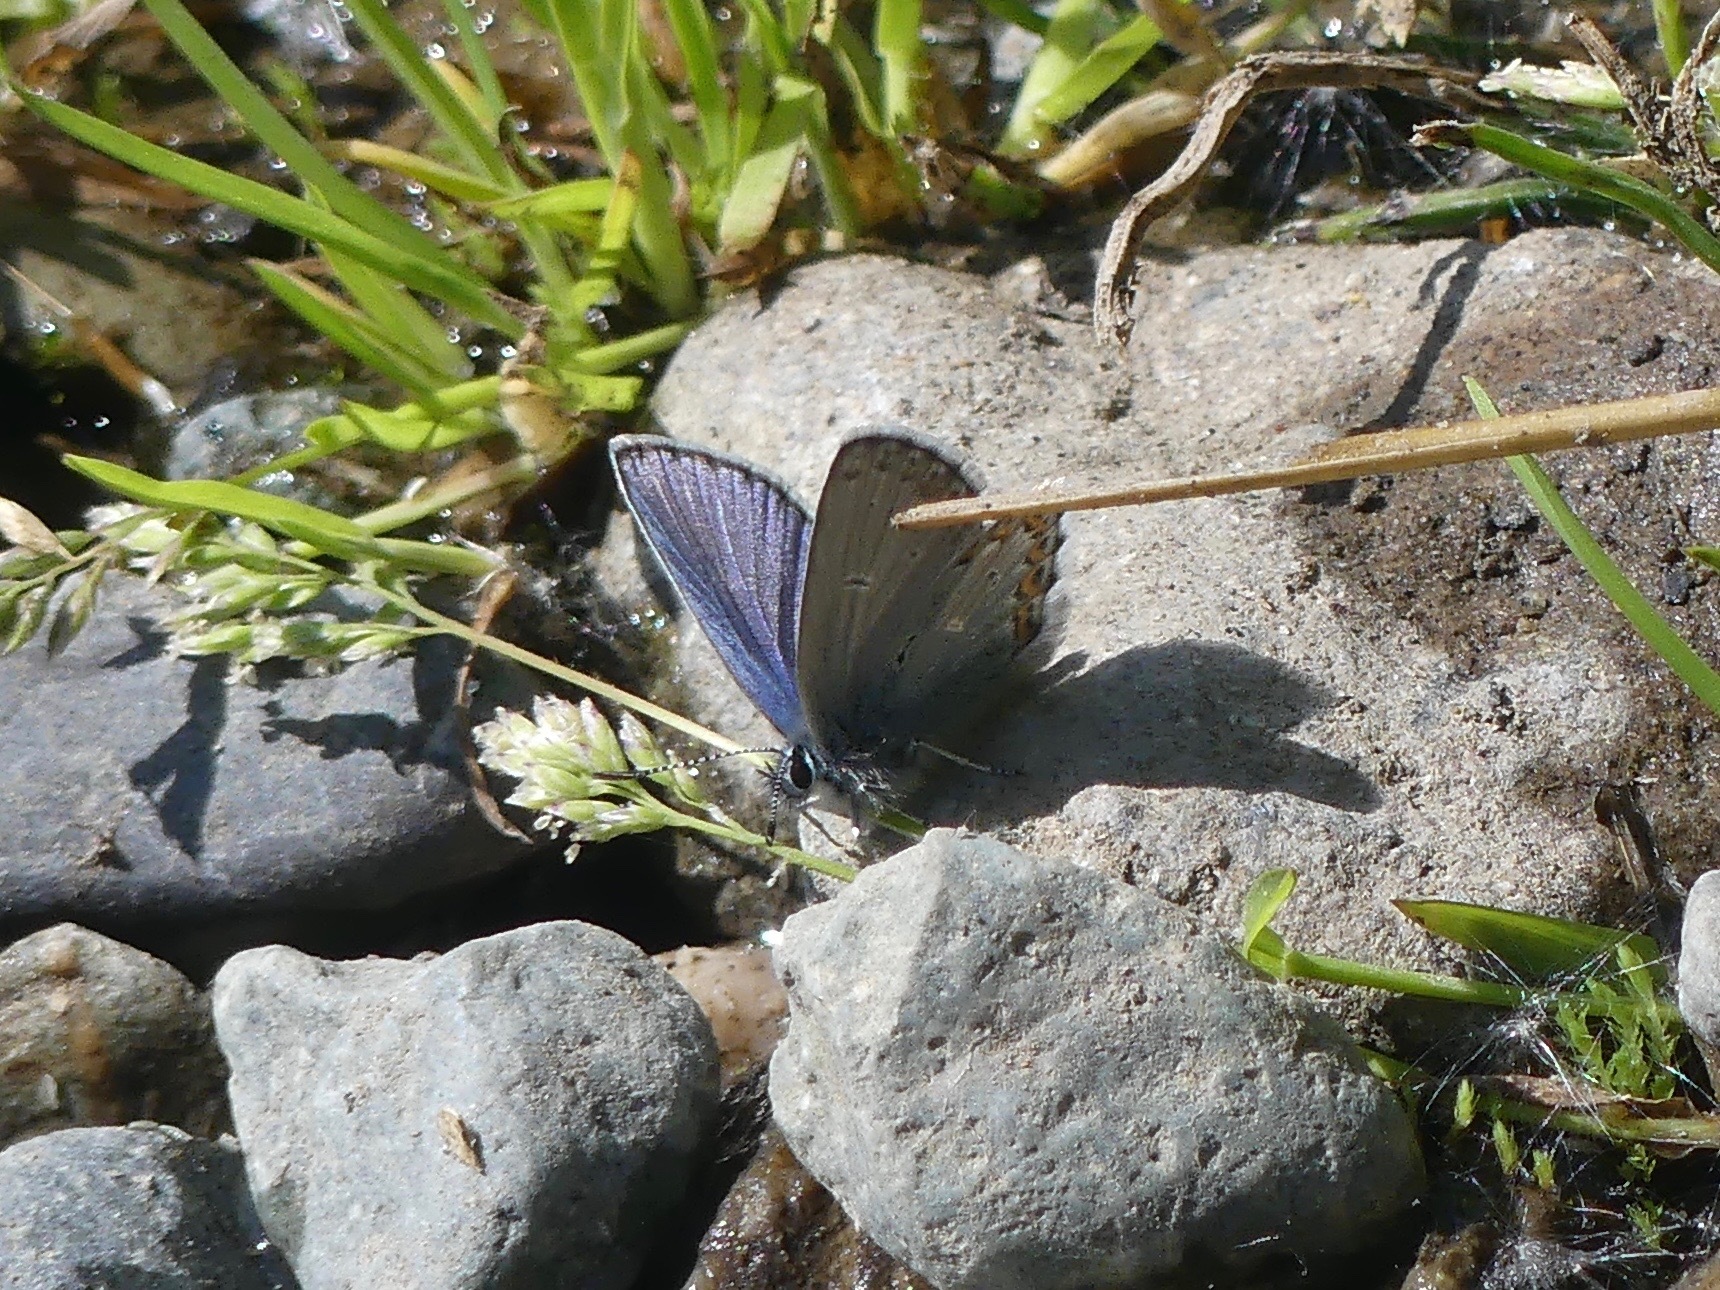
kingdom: Animalia
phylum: Arthropoda
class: Insecta
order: Lepidoptera
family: Lycaenidae
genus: Lycaeides
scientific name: Lycaeides idas
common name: Northern blue
